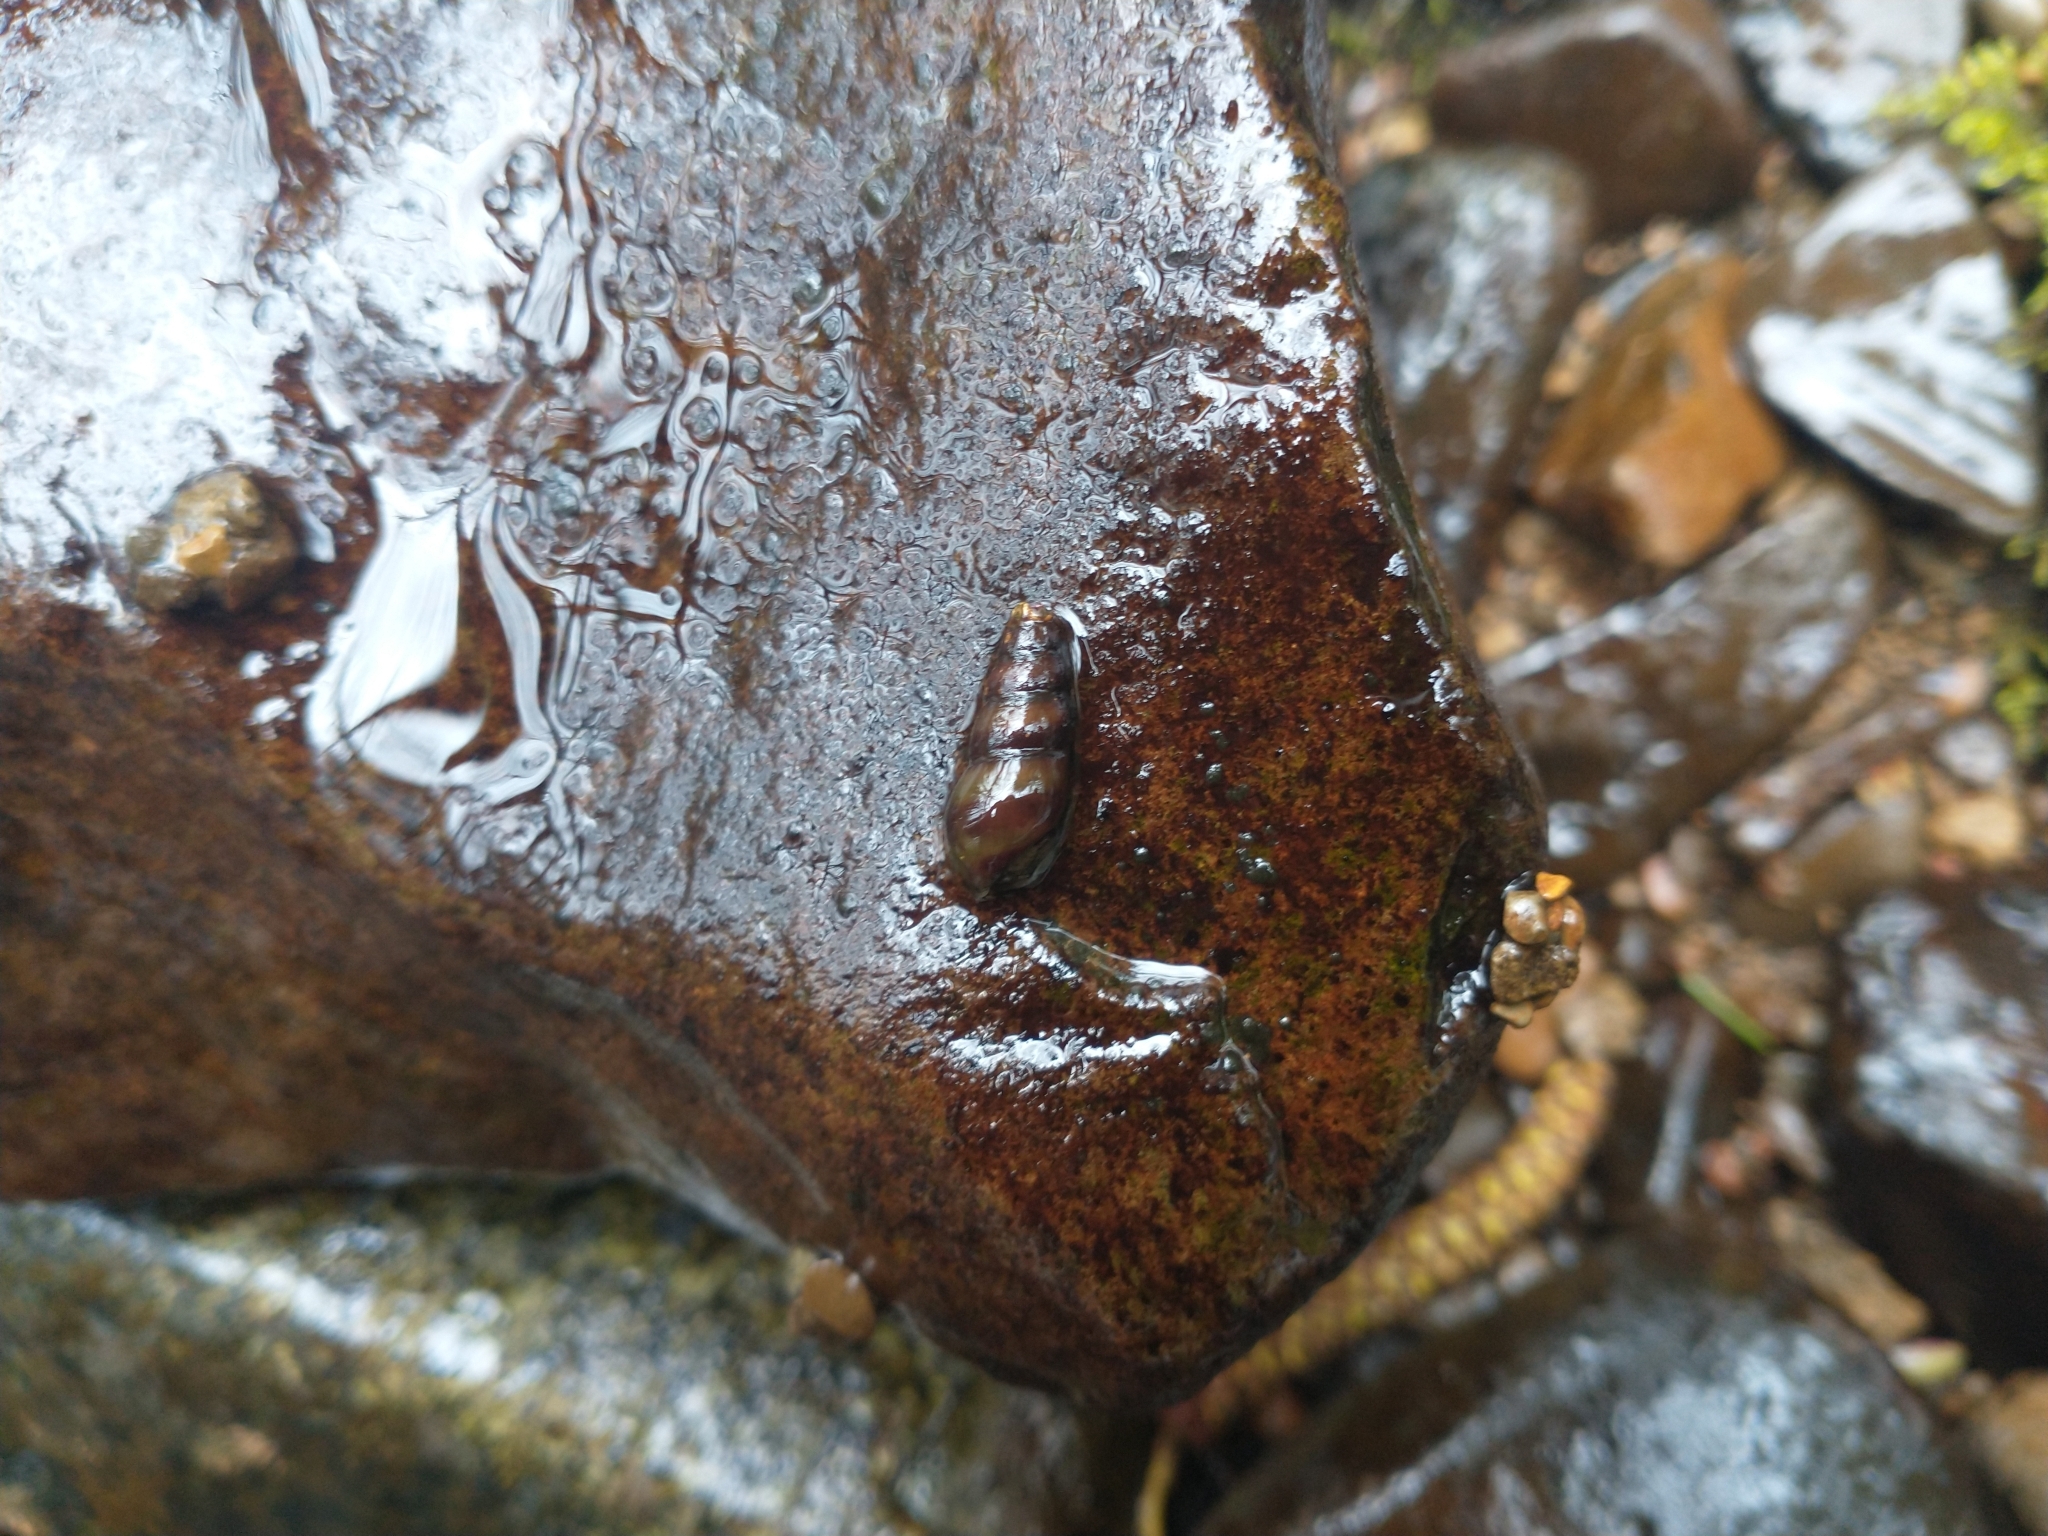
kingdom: Animalia
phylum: Mollusca
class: Gastropoda
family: Semisulcospiridae
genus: Juga
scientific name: Juga plicifera
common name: Pleated juga
